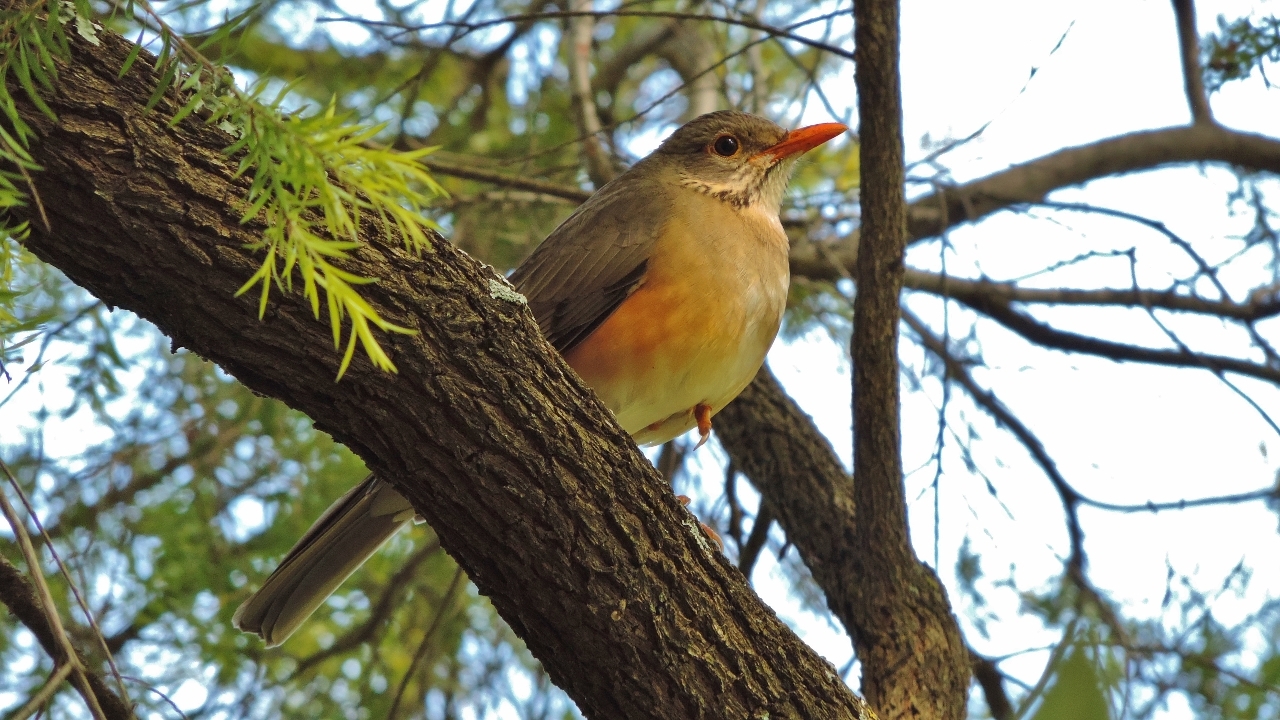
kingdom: Animalia
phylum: Chordata
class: Aves
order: Passeriformes
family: Turdidae
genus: Turdus
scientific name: Turdus libonyana
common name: Kurrichane thrush
